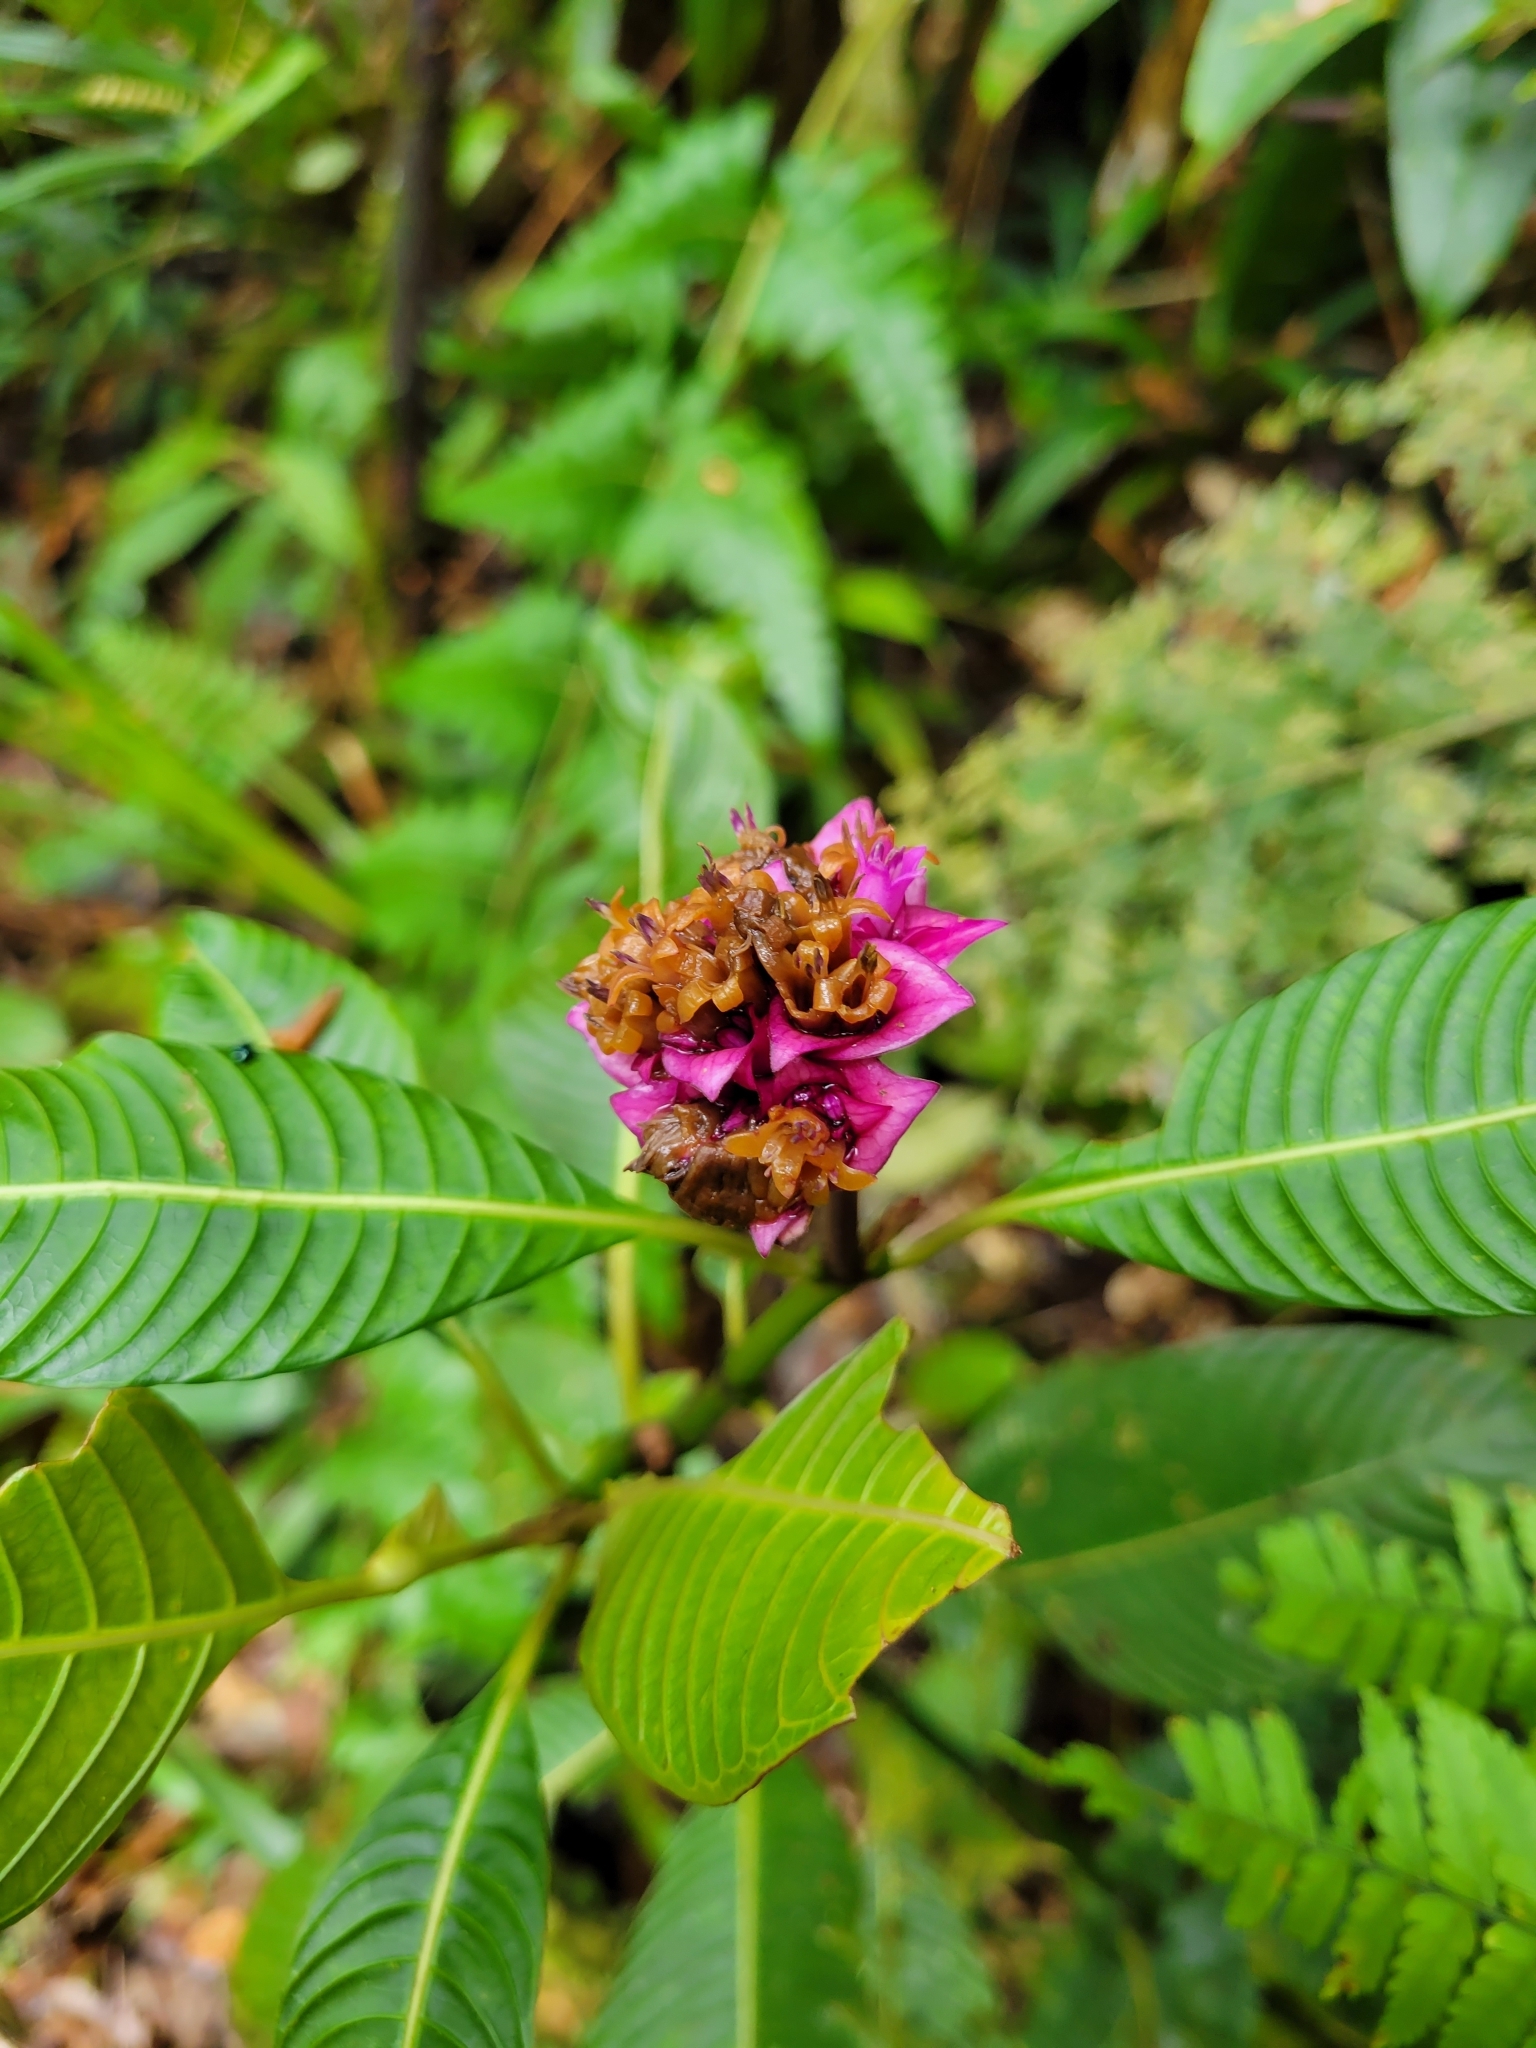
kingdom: Plantae
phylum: Tracheophyta
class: Magnoliopsida
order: Gentianales
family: Rubiaceae
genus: Palicourea
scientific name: Palicourea chiriquiensis
